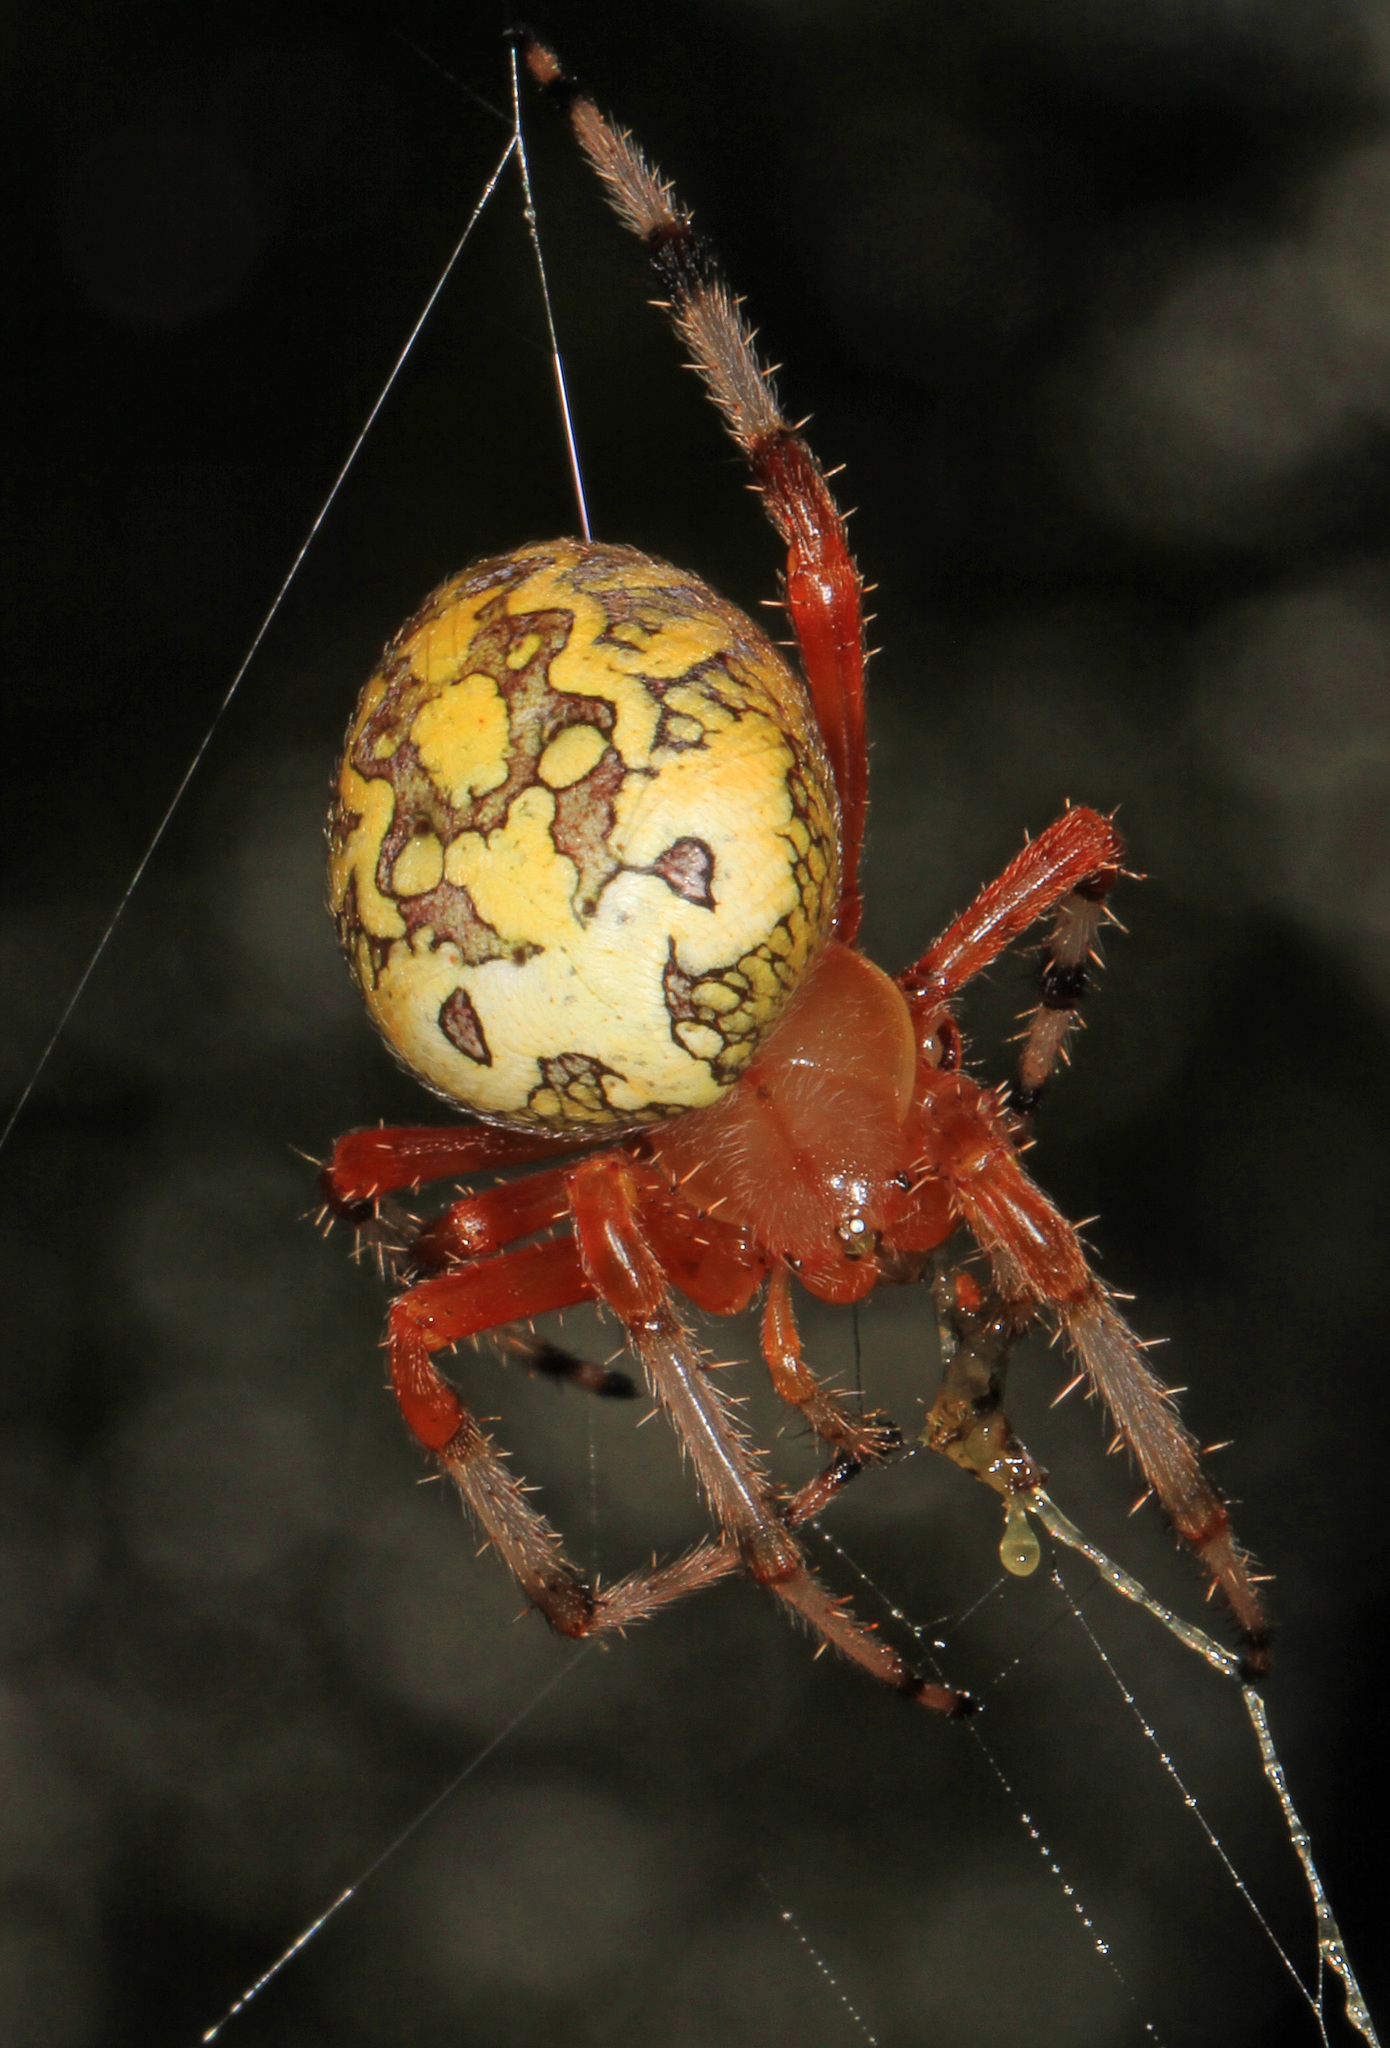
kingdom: Animalia
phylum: Arthropoda
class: Arachnida
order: Araneae
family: Araneidae
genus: Araneus
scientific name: Araneus marmoreus
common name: Marbled orbweaver
